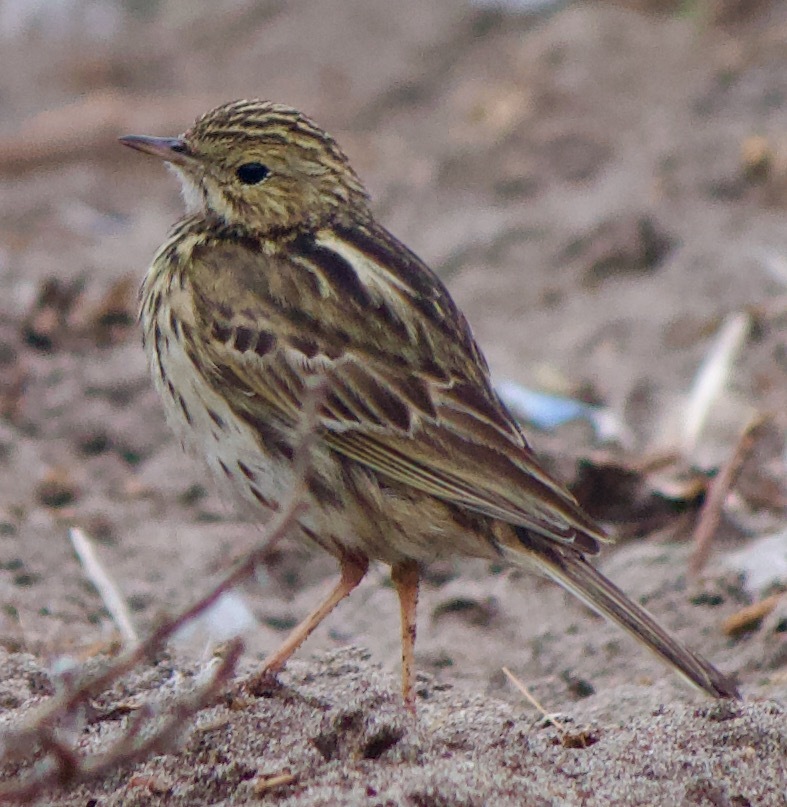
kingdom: Animalia
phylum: Chordata
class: Aves
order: Passeriformes
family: Motacillidae
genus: Anthus
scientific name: Anthus correndera
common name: Correndera pipit
